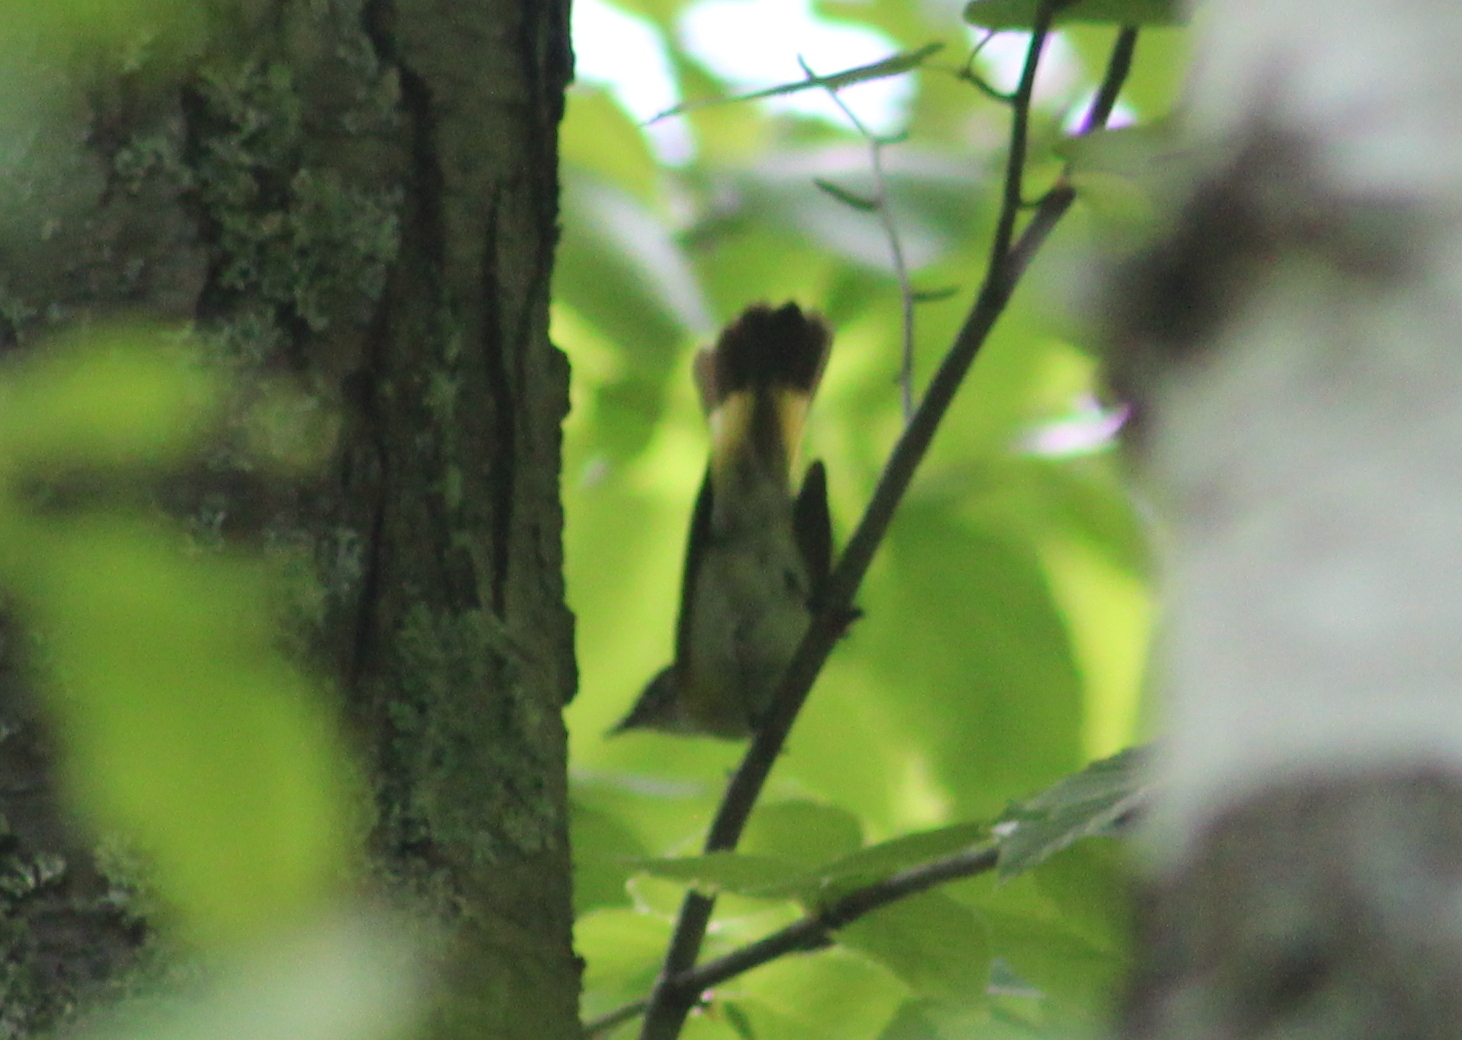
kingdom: Animalia
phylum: Chordata
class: Aves
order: Passeriformes
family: Parulidae
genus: Setophaga
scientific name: Setophaga ruticilla
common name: American redstart
